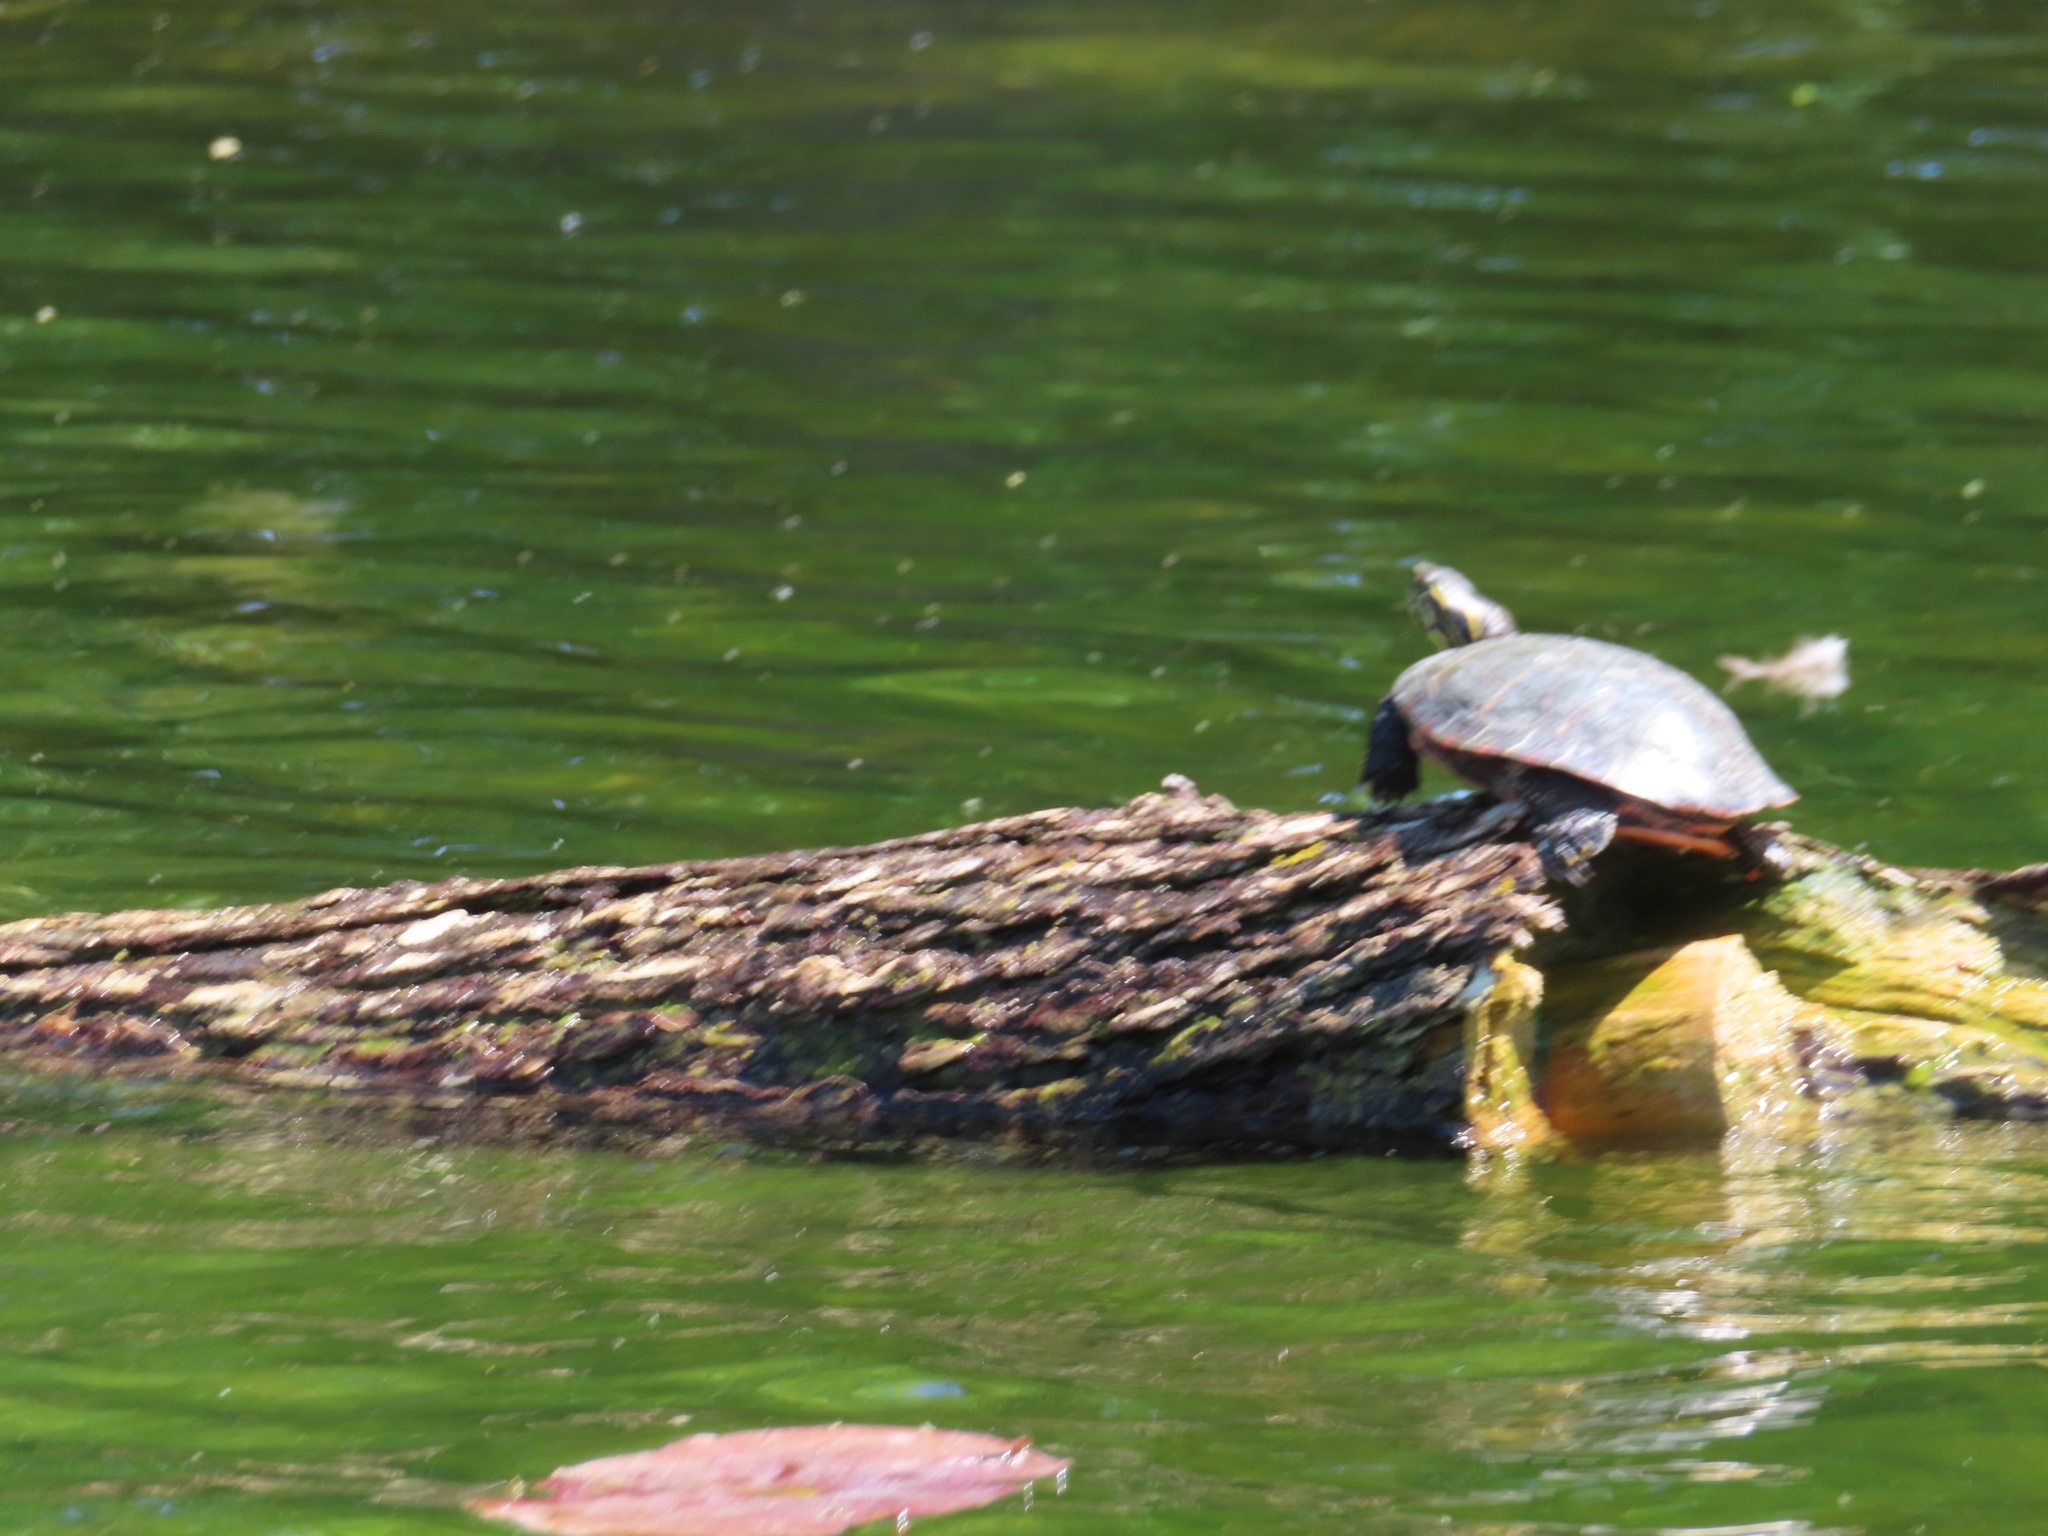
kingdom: Animalia
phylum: Chordata
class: Testudines
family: Emydidae
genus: Chrysemys
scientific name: Chrysemys picta
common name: Painted turtle
